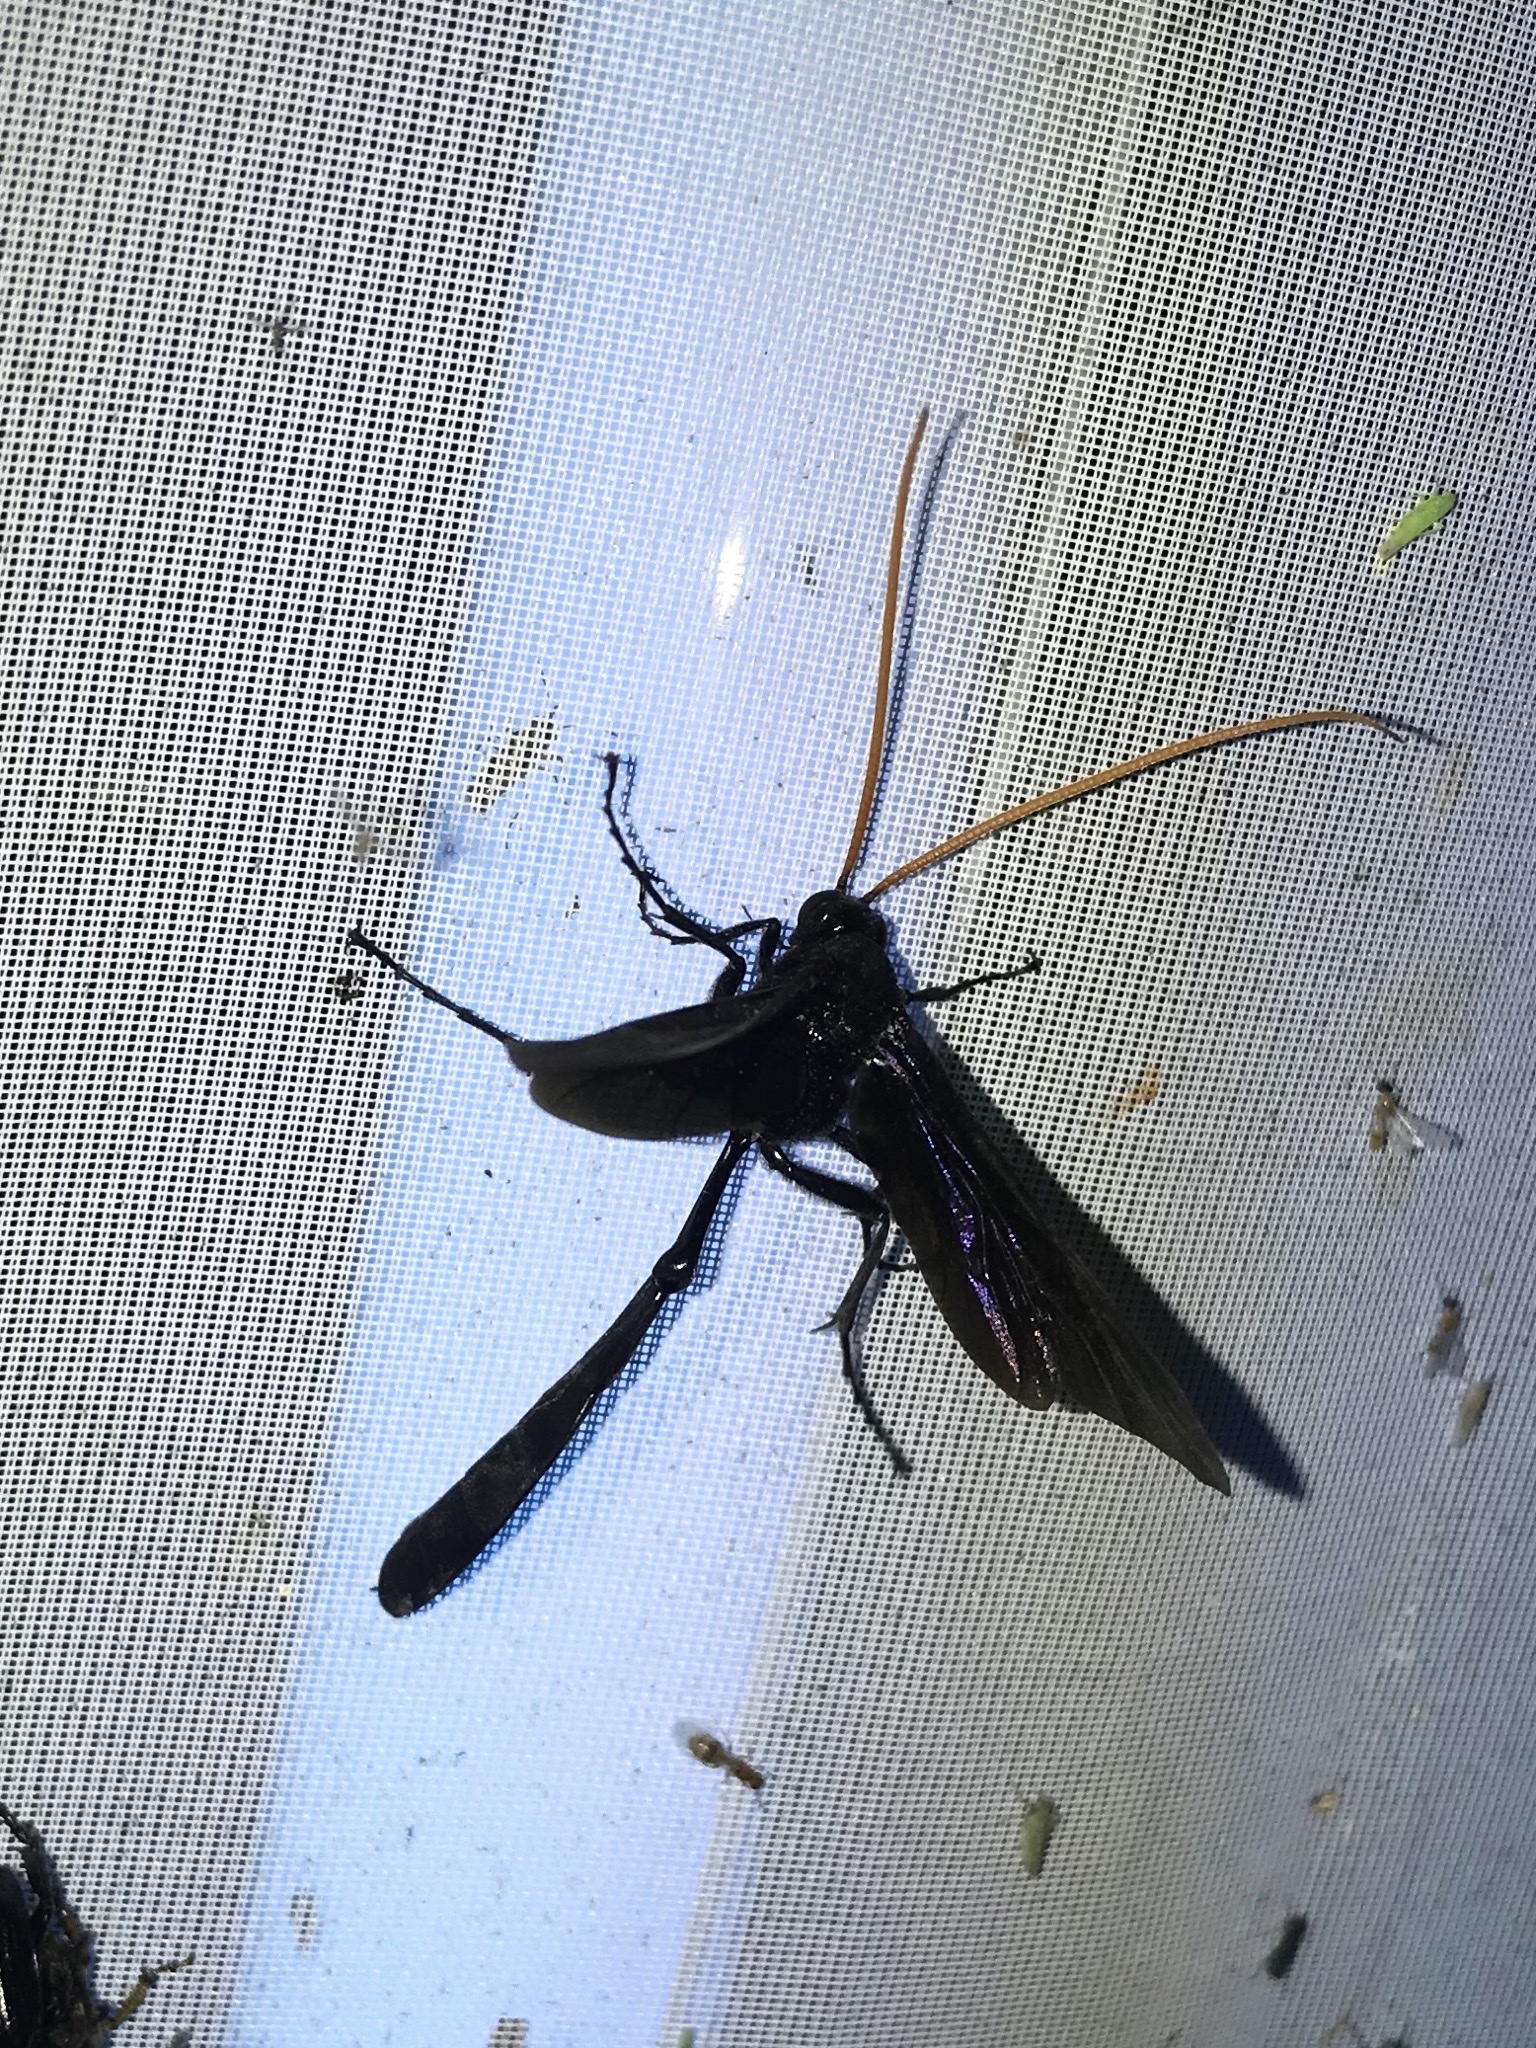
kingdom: Animalia
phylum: Arthropoda
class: Insecta
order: Hymenoptera
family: Ichneumonidae
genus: Thyreodon
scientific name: Thyreodon atricolor
